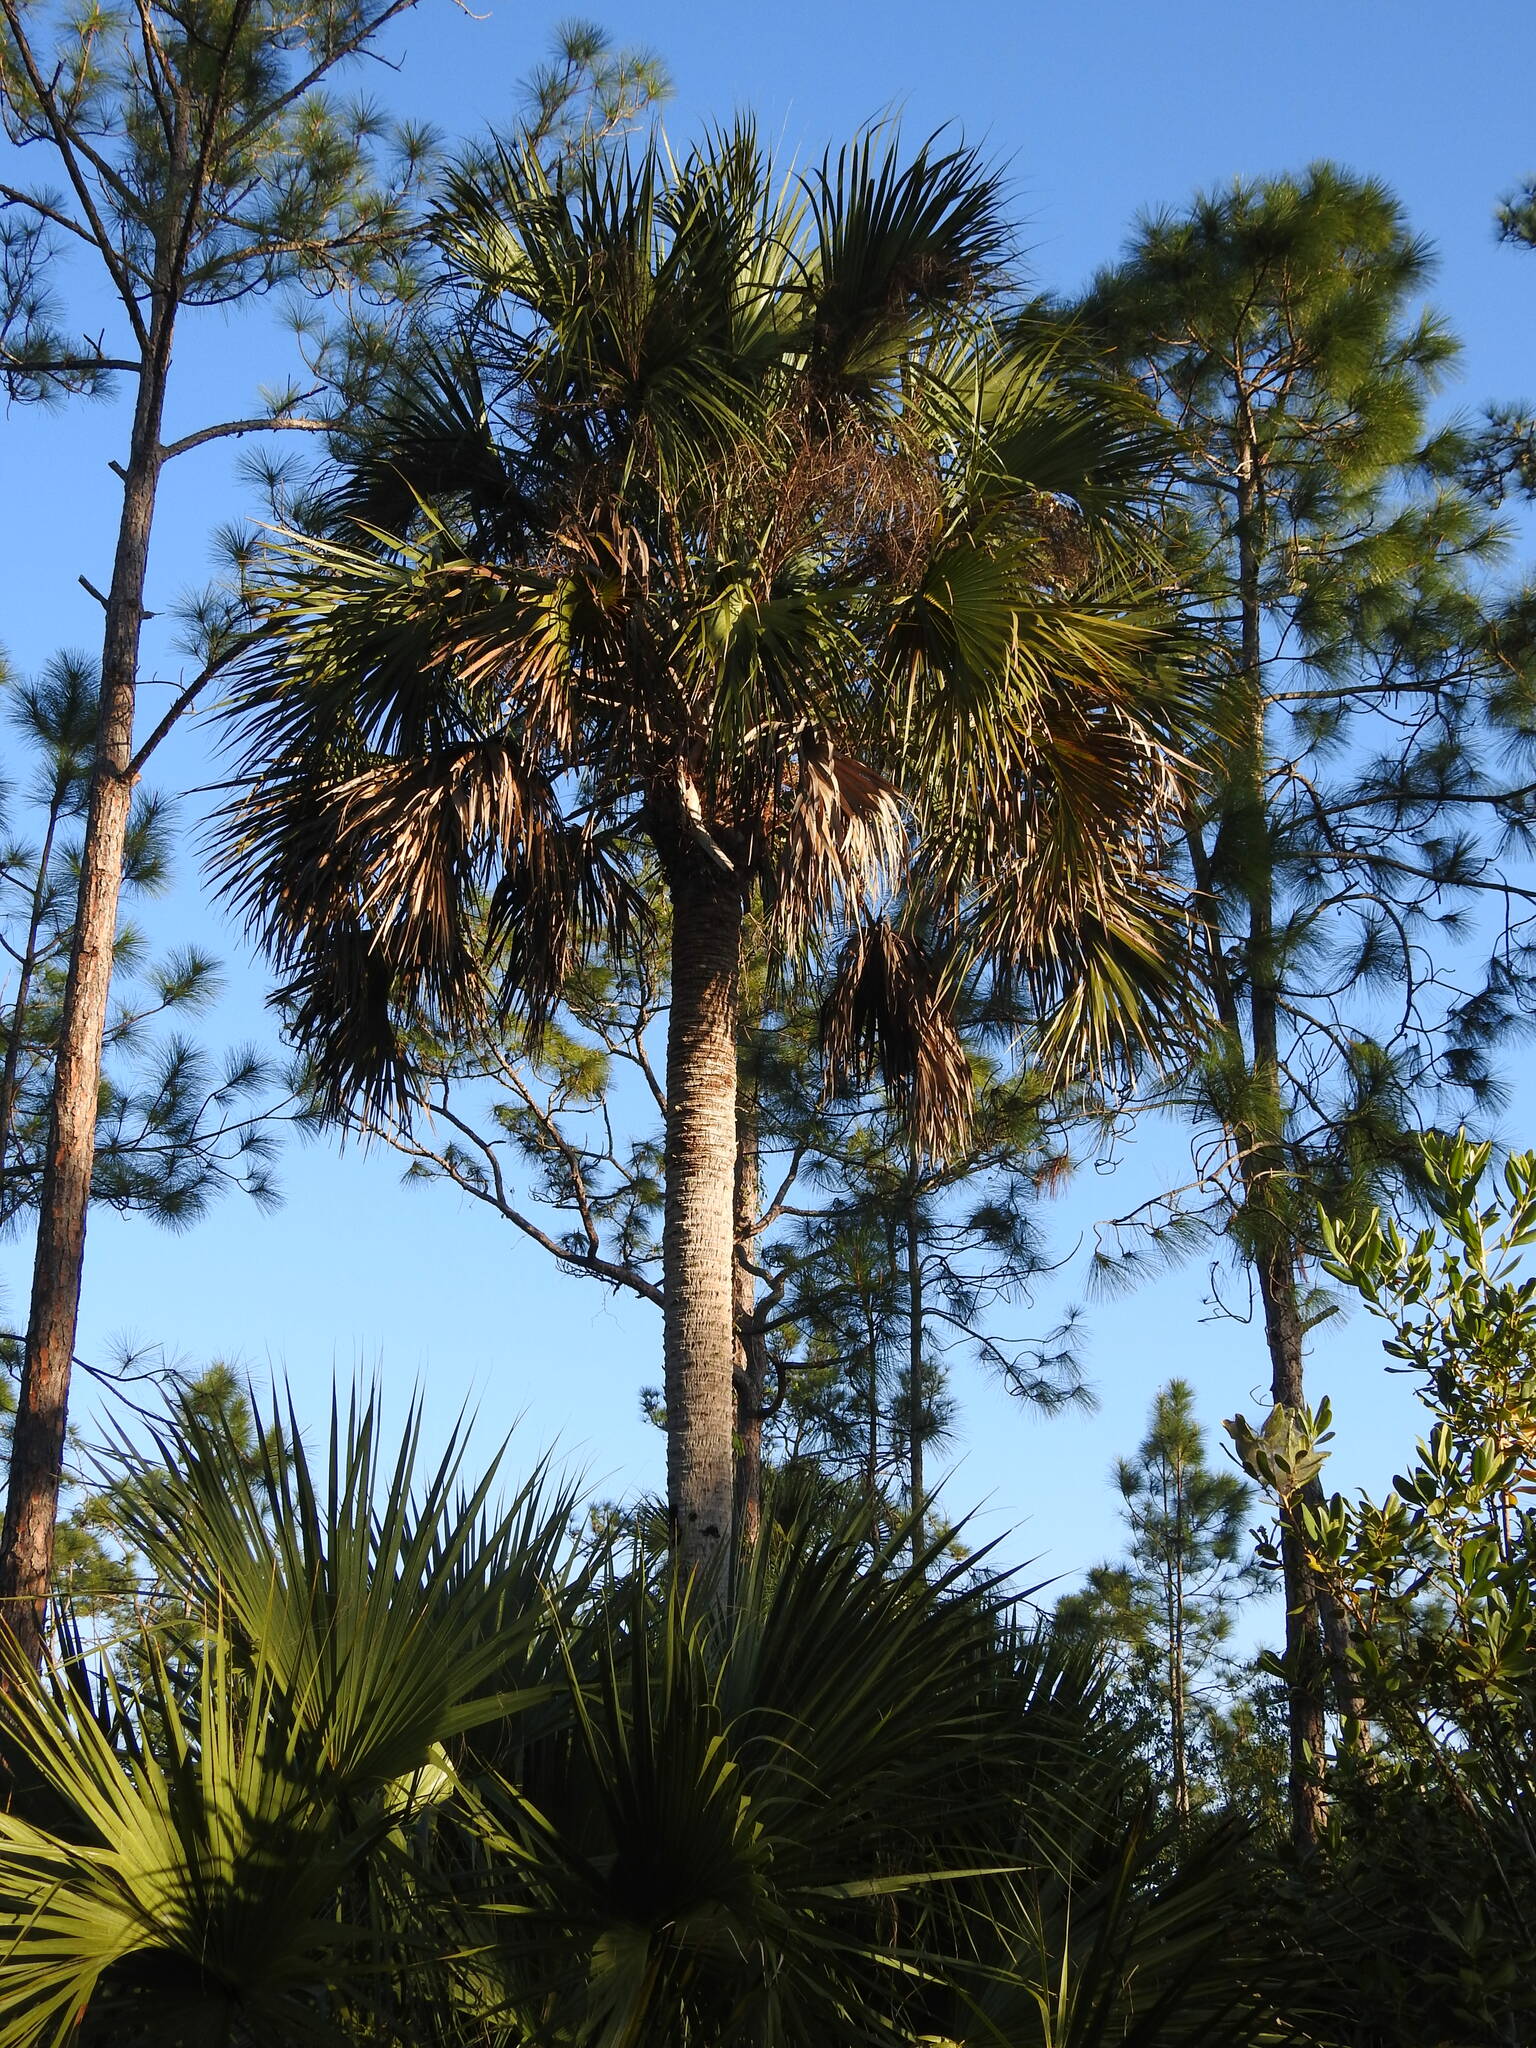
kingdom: Plantae
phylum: Tracheophyta
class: Liliopsida
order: Arecales
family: Arecaceae
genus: Sabal
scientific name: Sabal palmetto
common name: Blue palmetto
